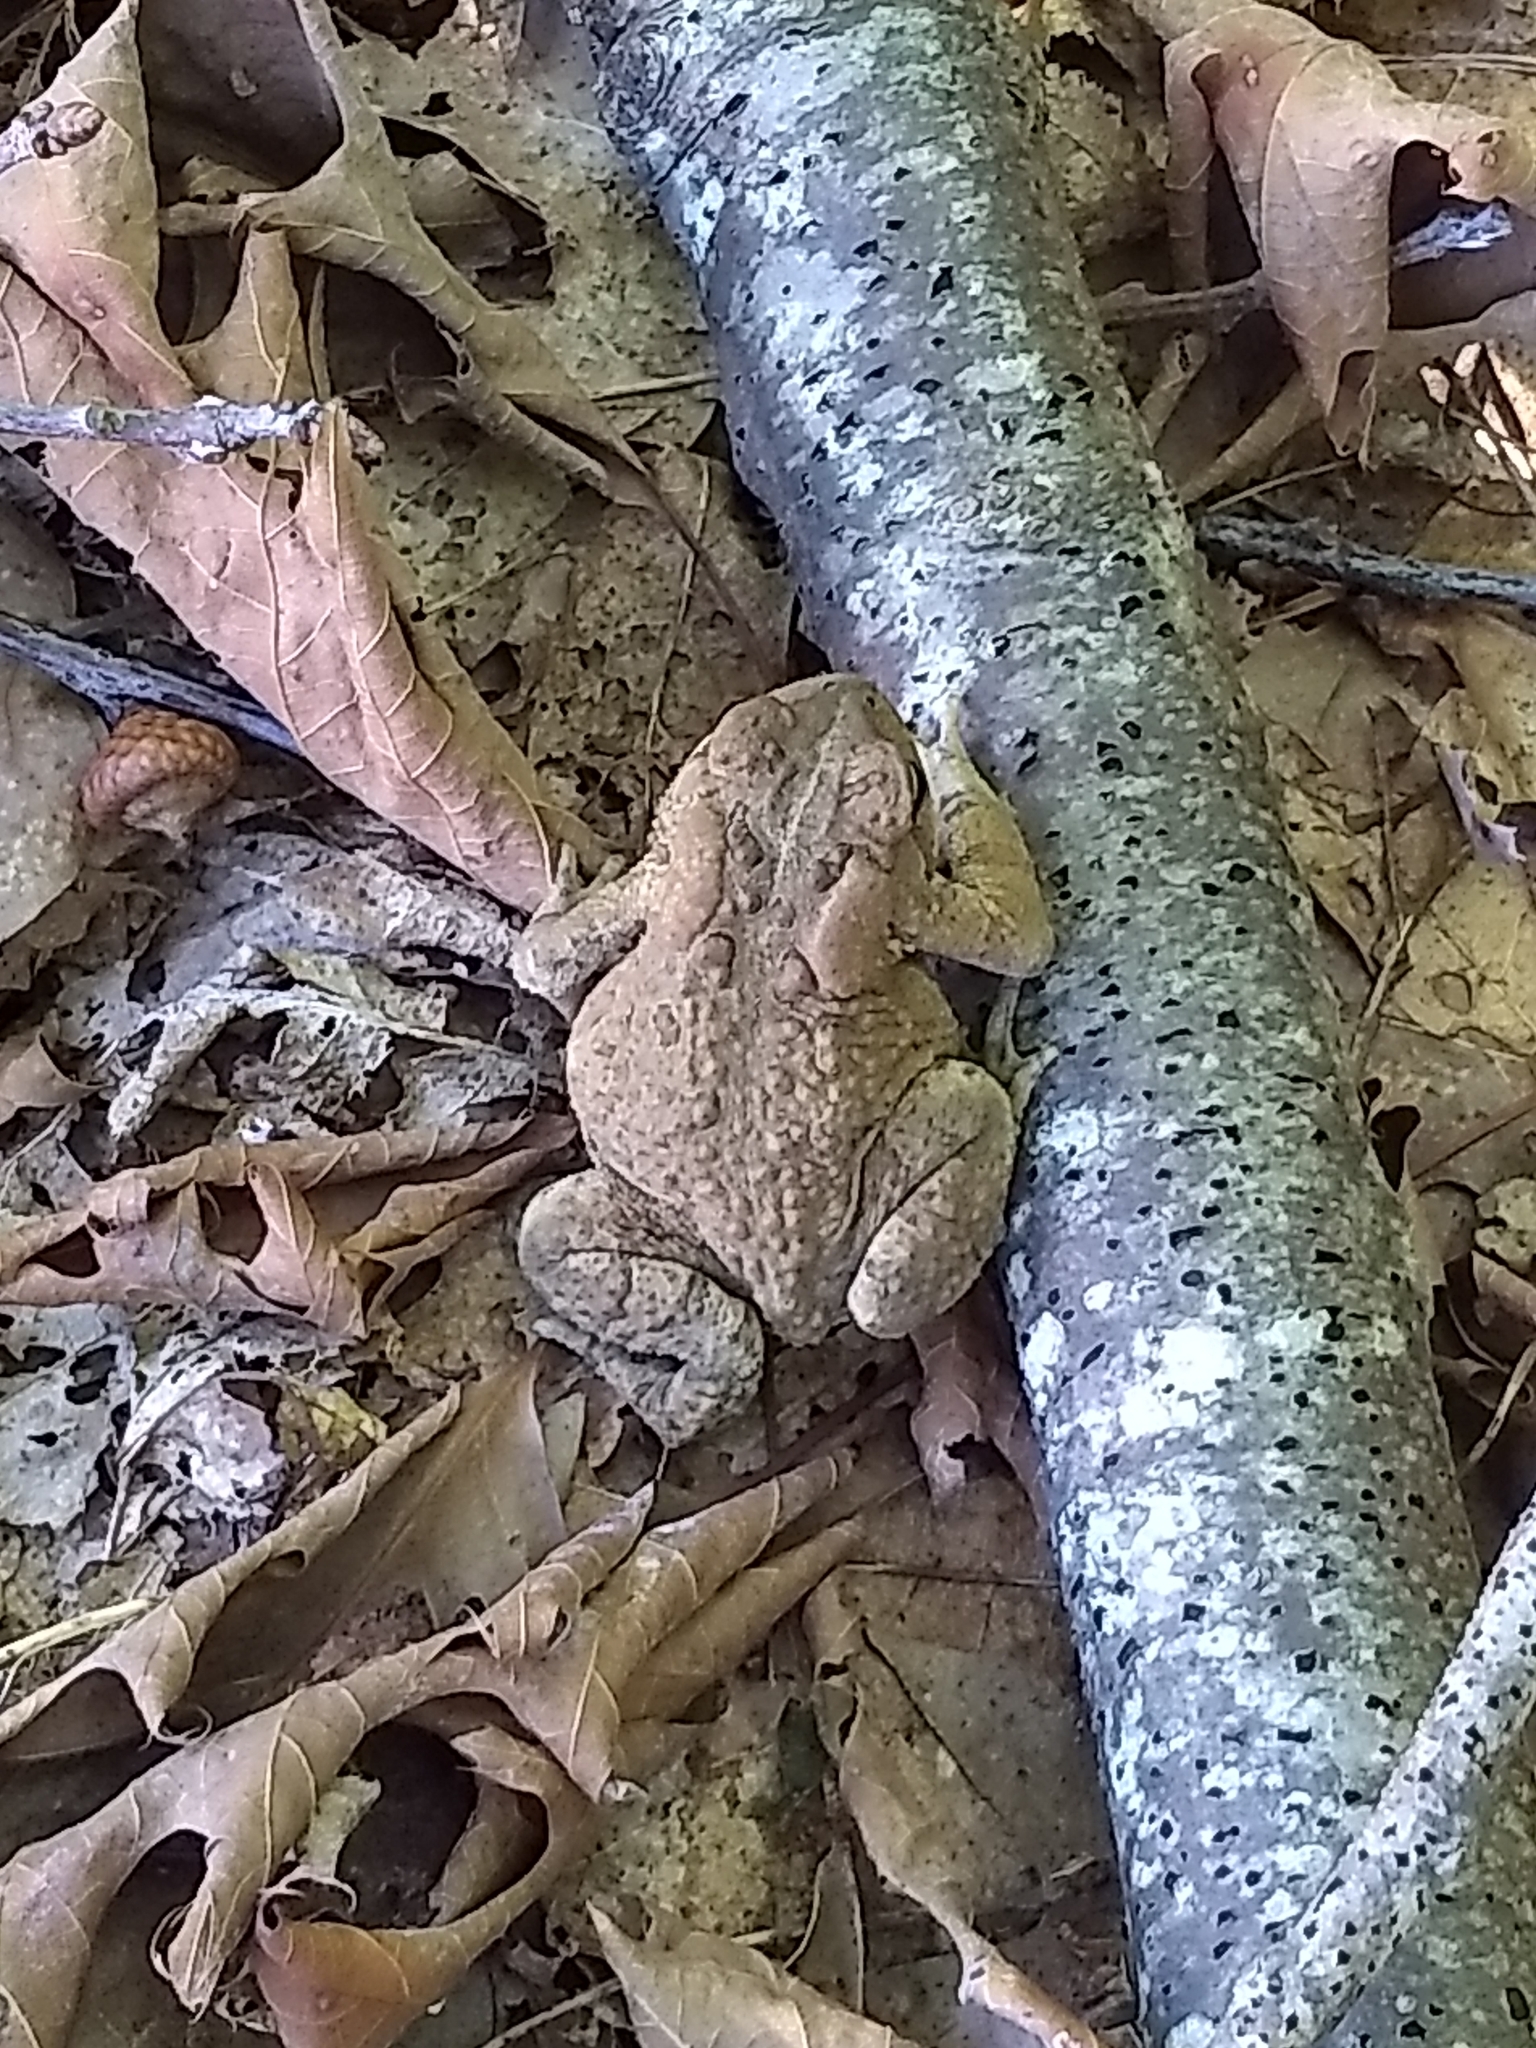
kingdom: Animalia
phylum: Chordata
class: Amphibia
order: Anura
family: Bufonidae
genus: Anaxyrus
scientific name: Anaxyrus americanus
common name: American toad
